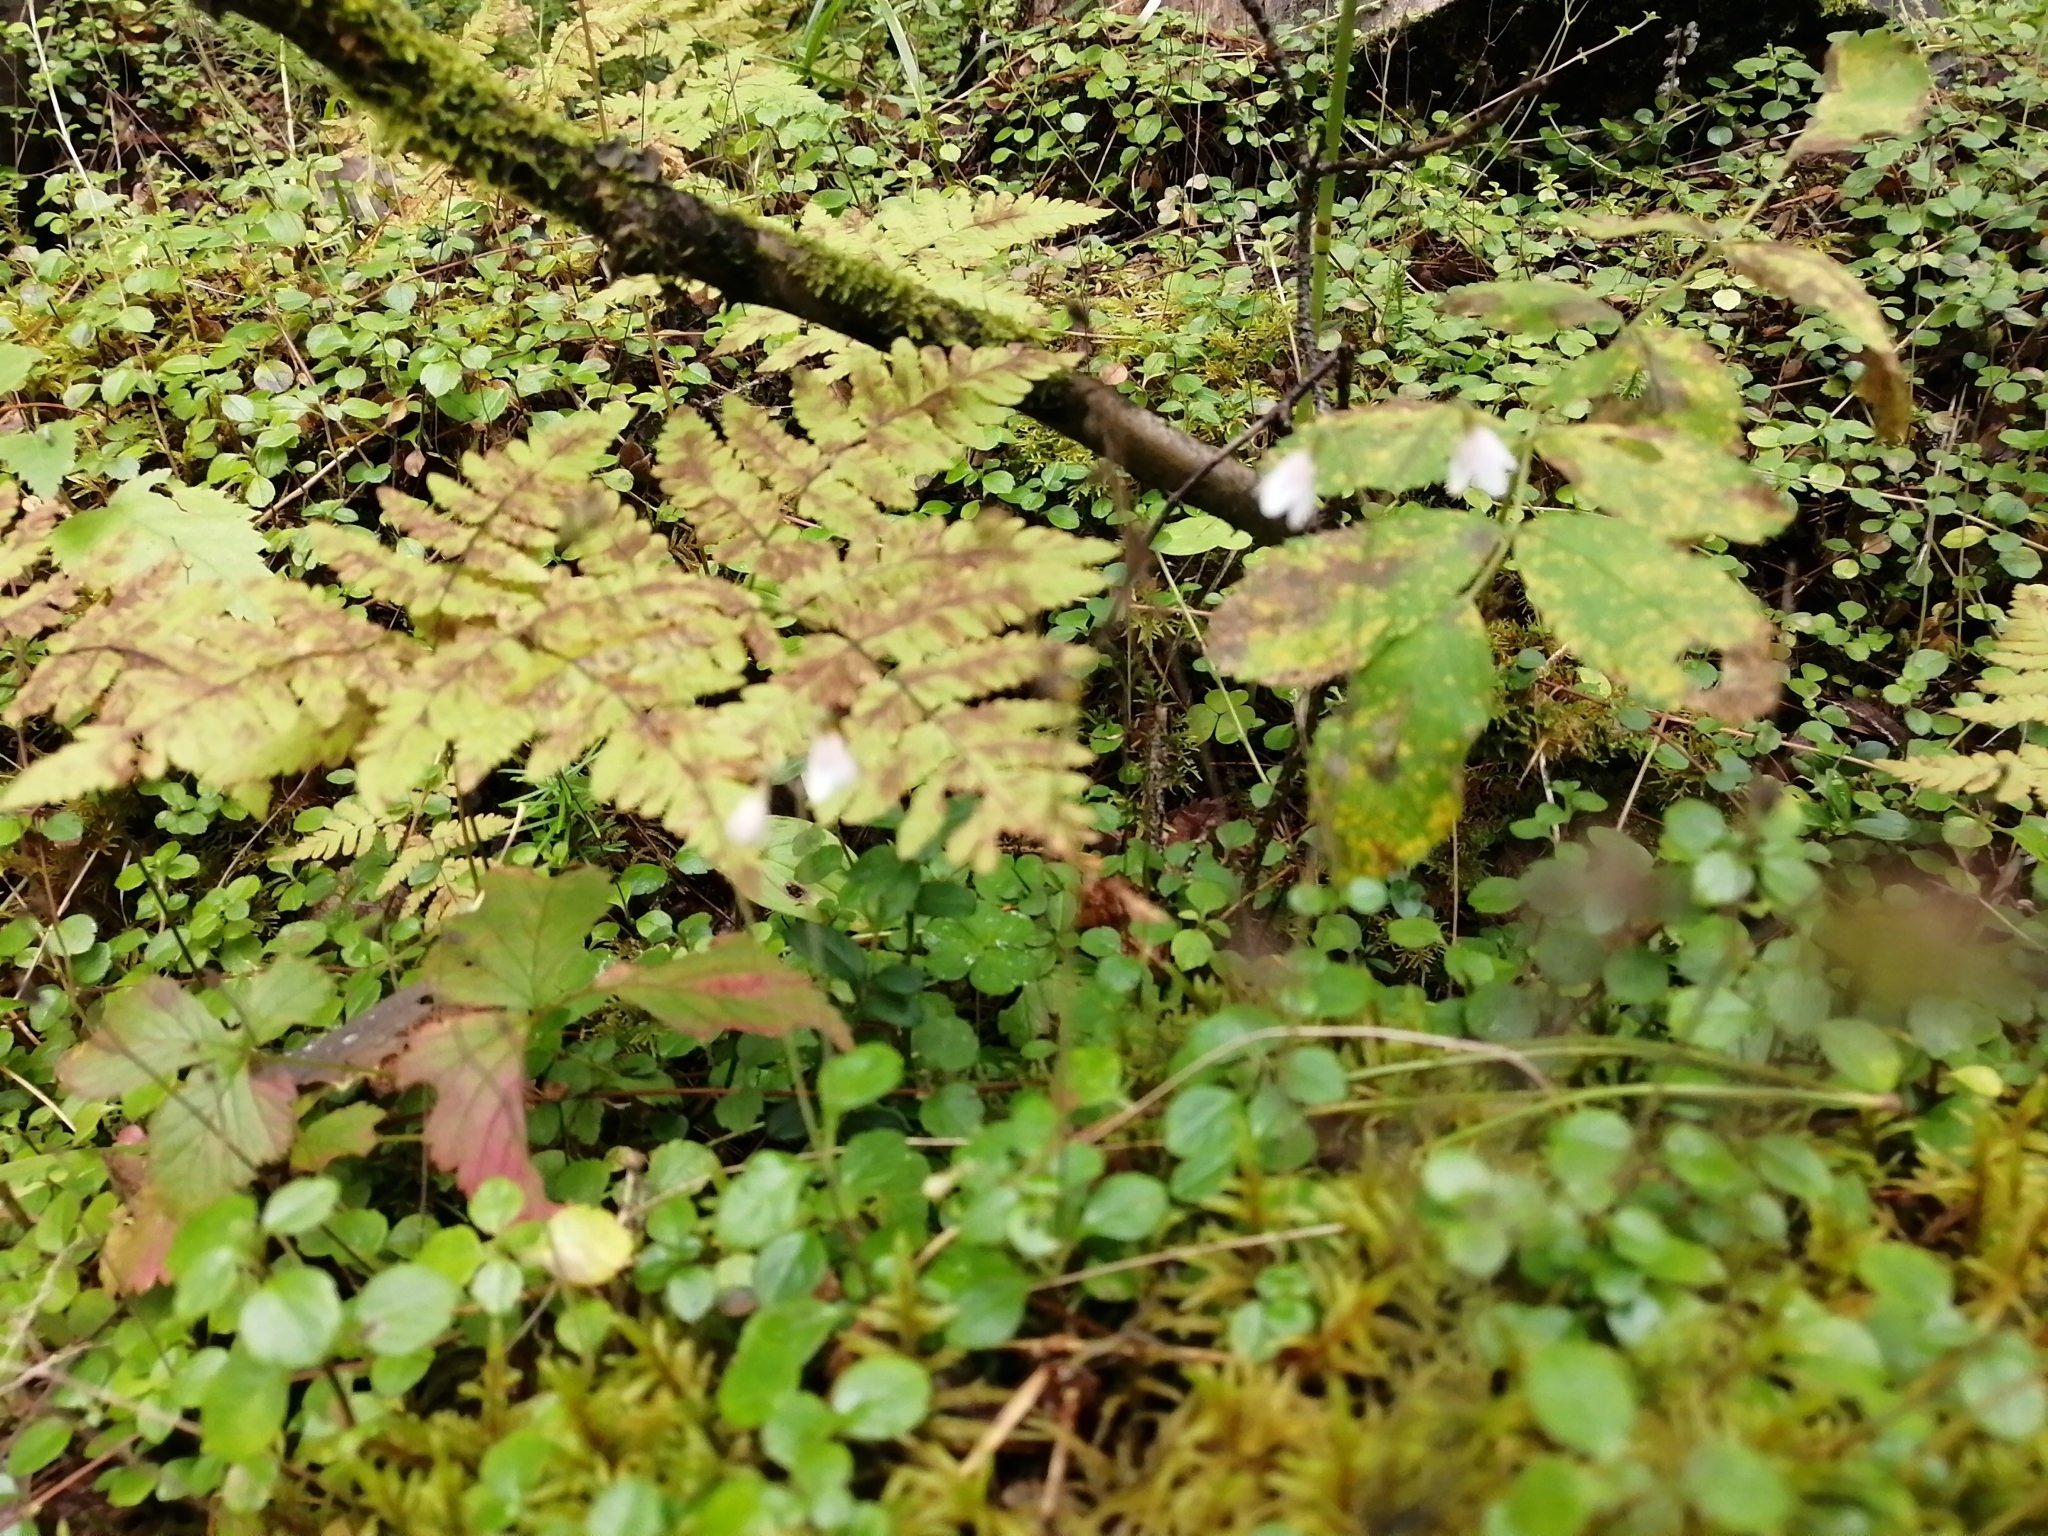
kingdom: Plantae
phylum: Tracheophyta
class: Magnoliopsida
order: Dipsacales
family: Caprifoliaceae
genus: Linnaea
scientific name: Linnaea borealis
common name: Twinflower
